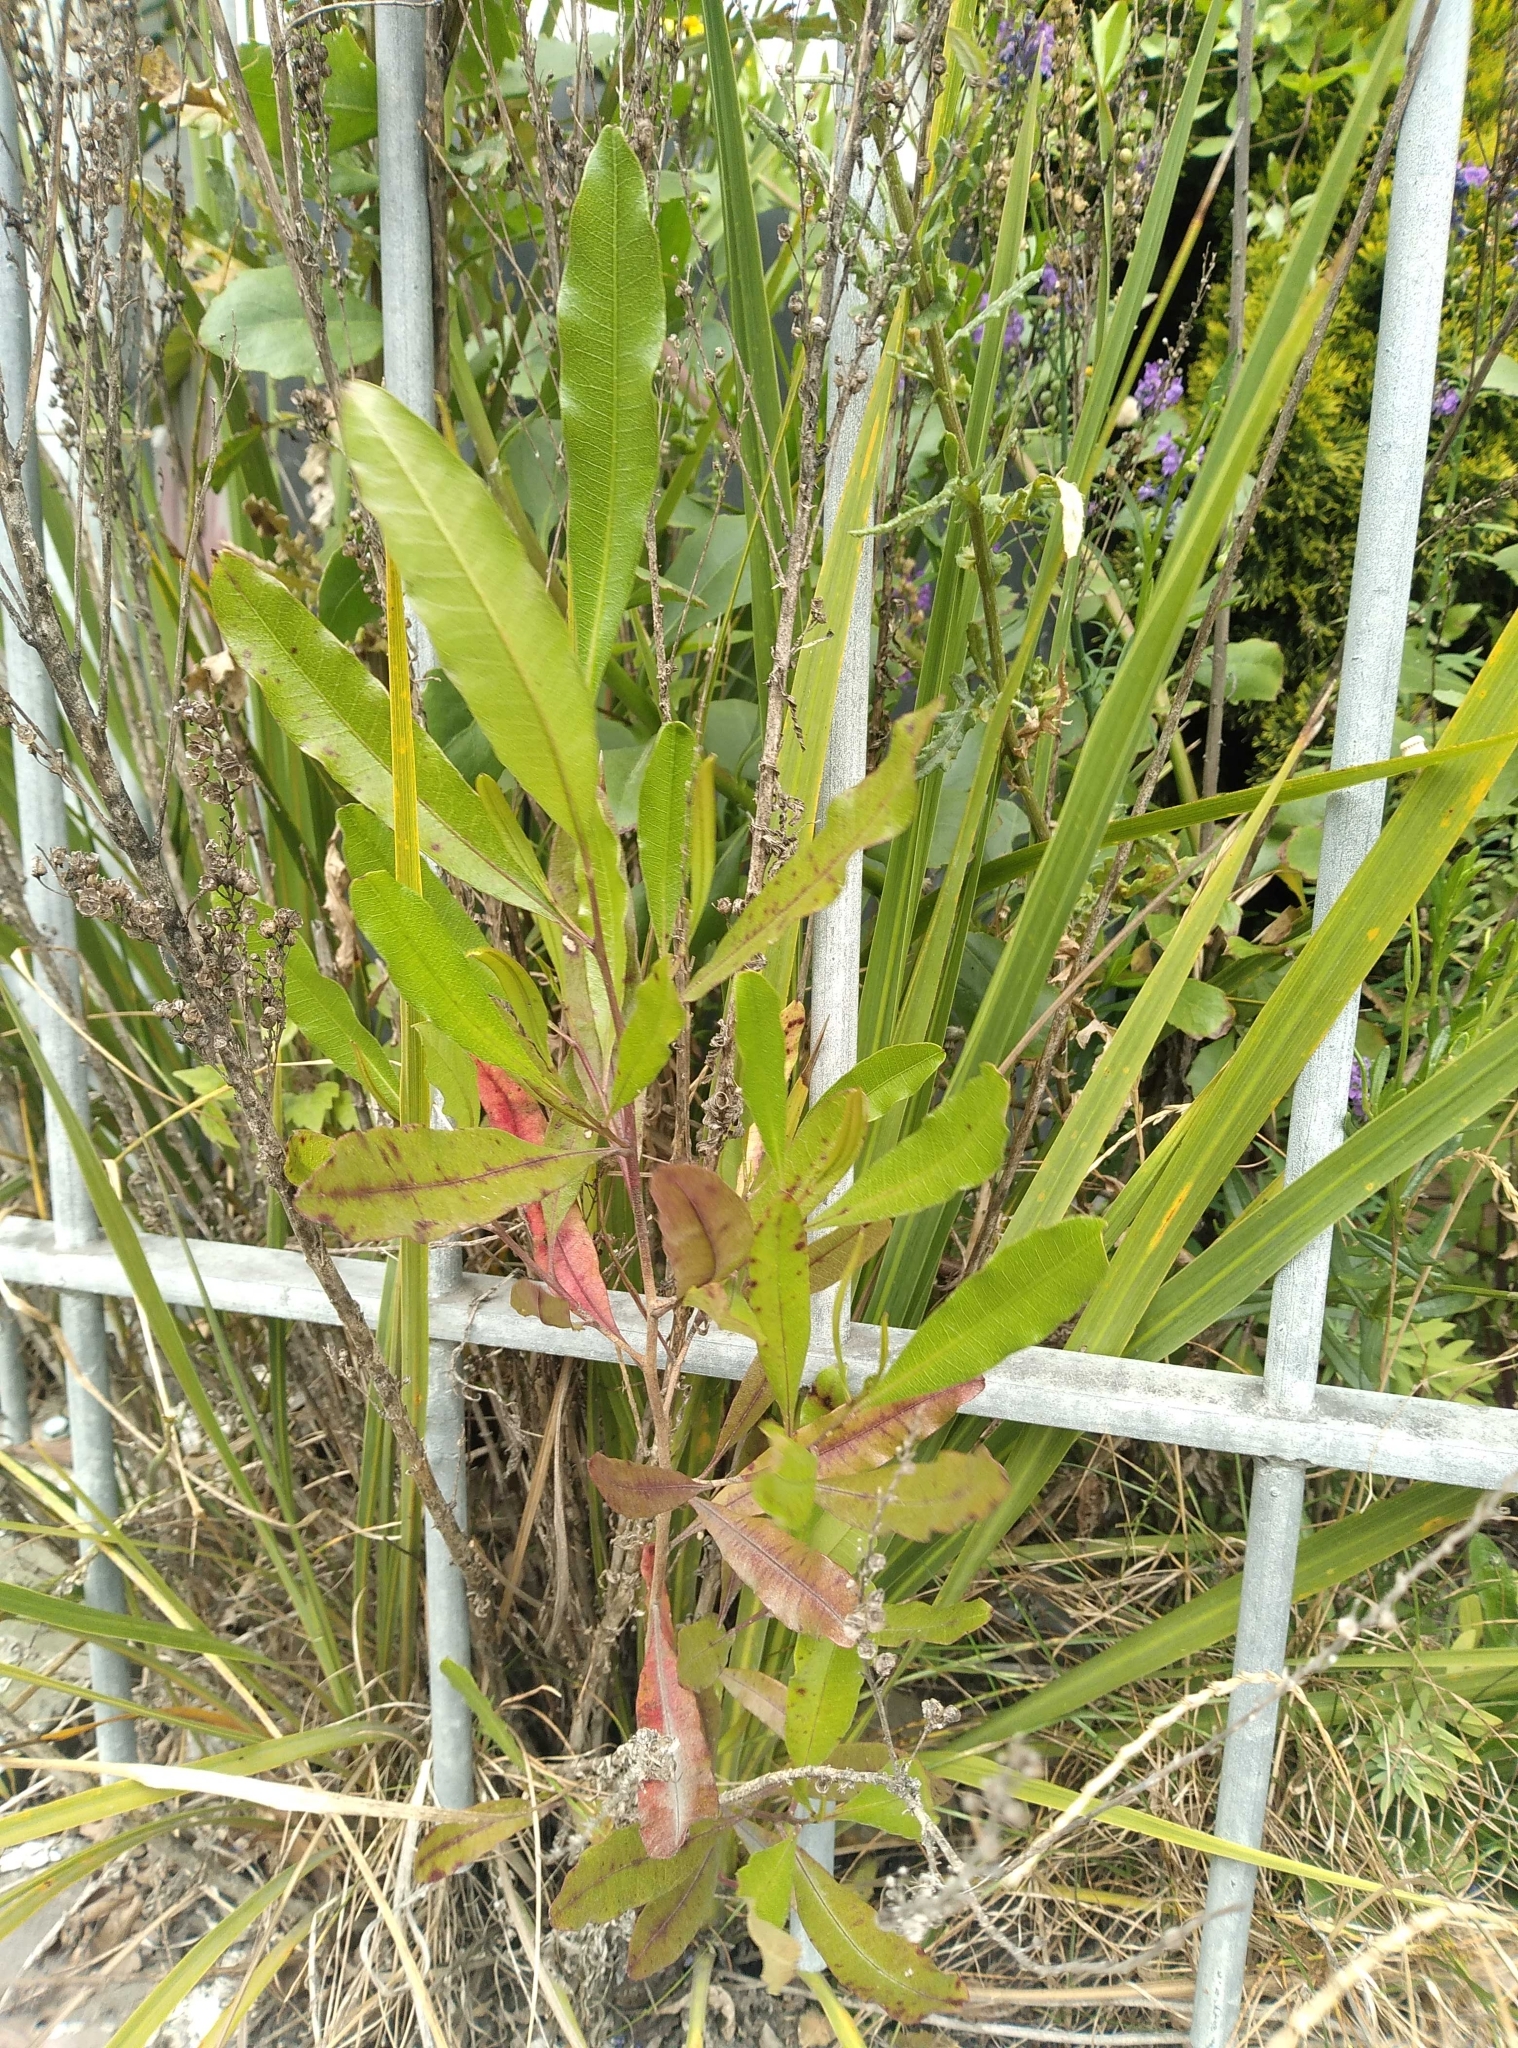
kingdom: Plantae
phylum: Tracheophyta
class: Magnoliopsida
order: Sapindales
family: Sapindaceae
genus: Dodonaea
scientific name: Dodonaea viscosa
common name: Hopbush
